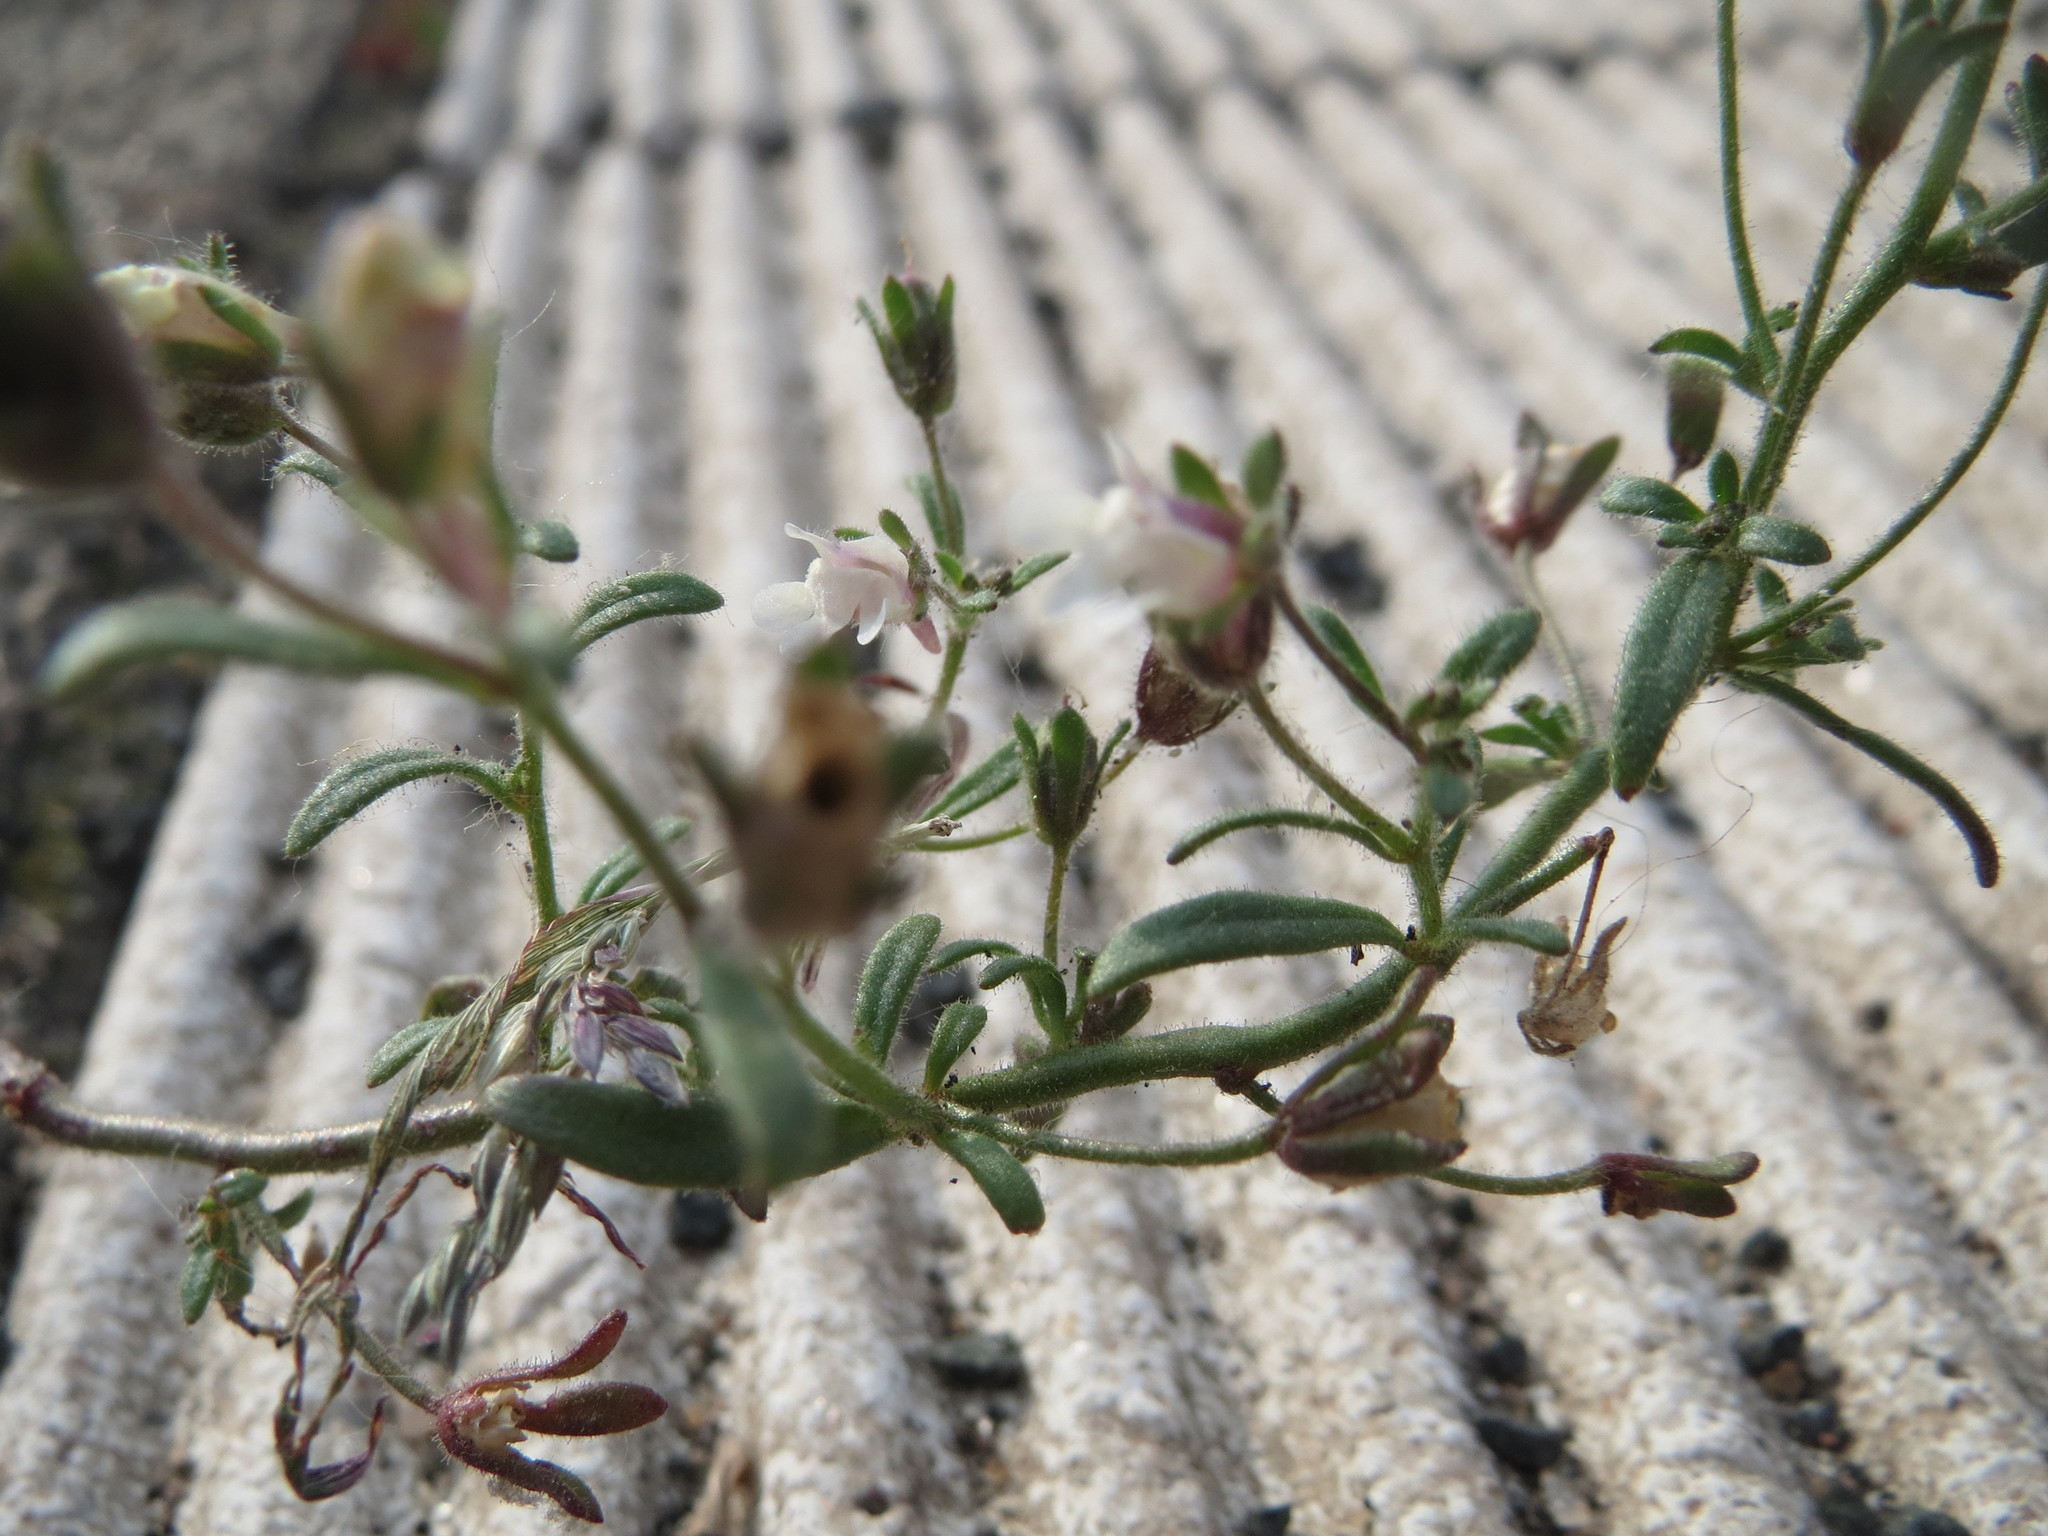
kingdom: Plantae
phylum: Tracheophyta
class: Magnoliopsida
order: Lamiales
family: Plantaginaceae
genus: Chaenorhinum
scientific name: Chaenorhinum minus
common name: Dwarf snapdragon
